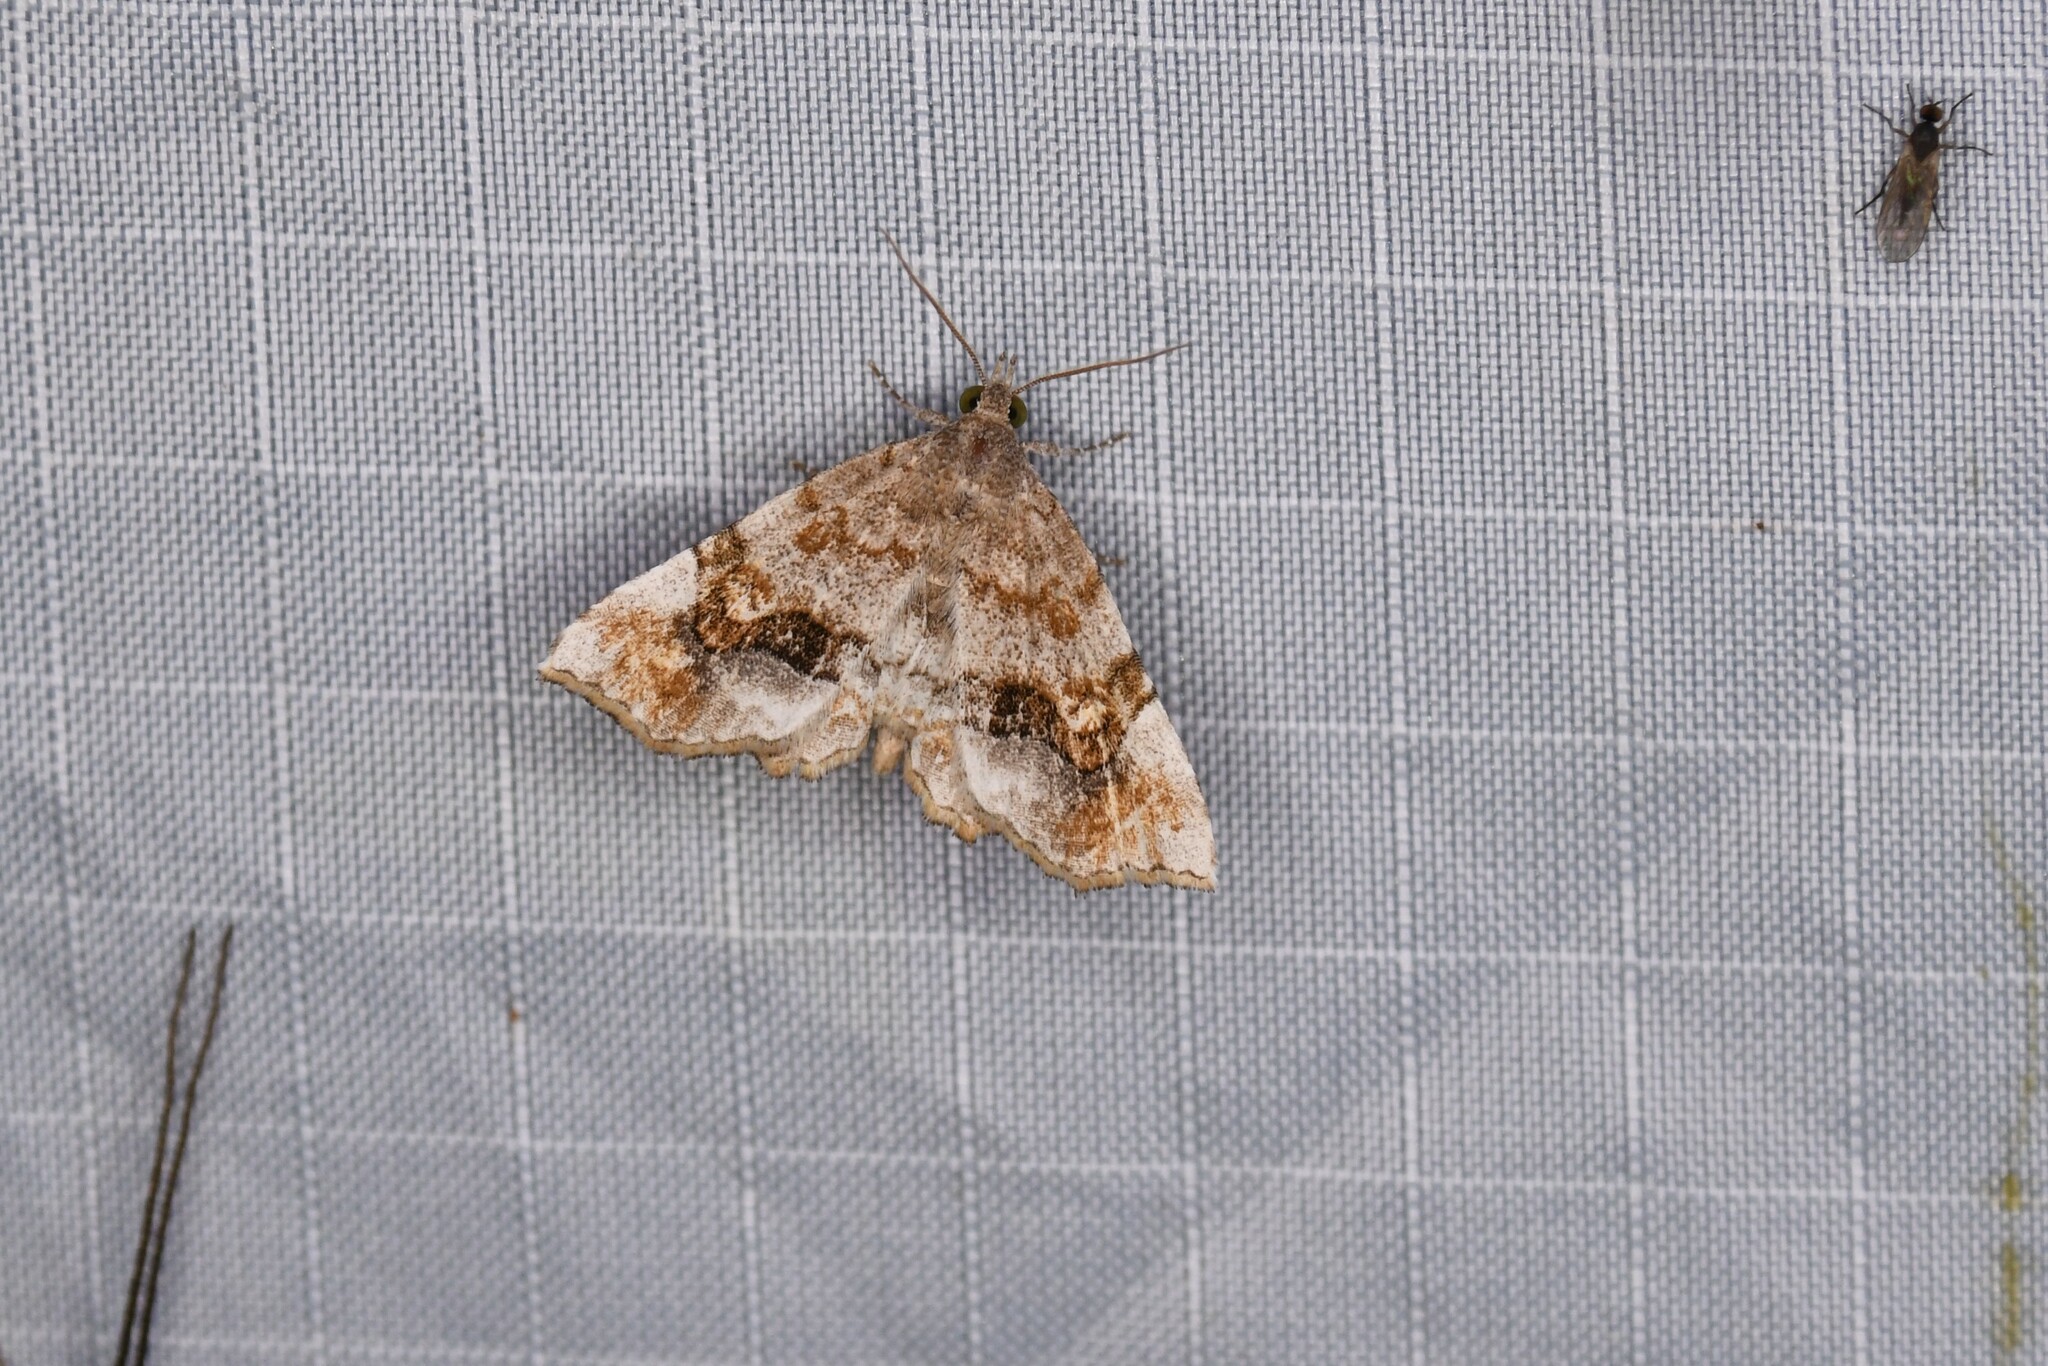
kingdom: Animalia
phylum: Arthropoda
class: Insecta
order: Lepidoptera
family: Erebidae
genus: Pangrapta
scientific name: Pangrapta decoralis
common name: Decorated owlet
